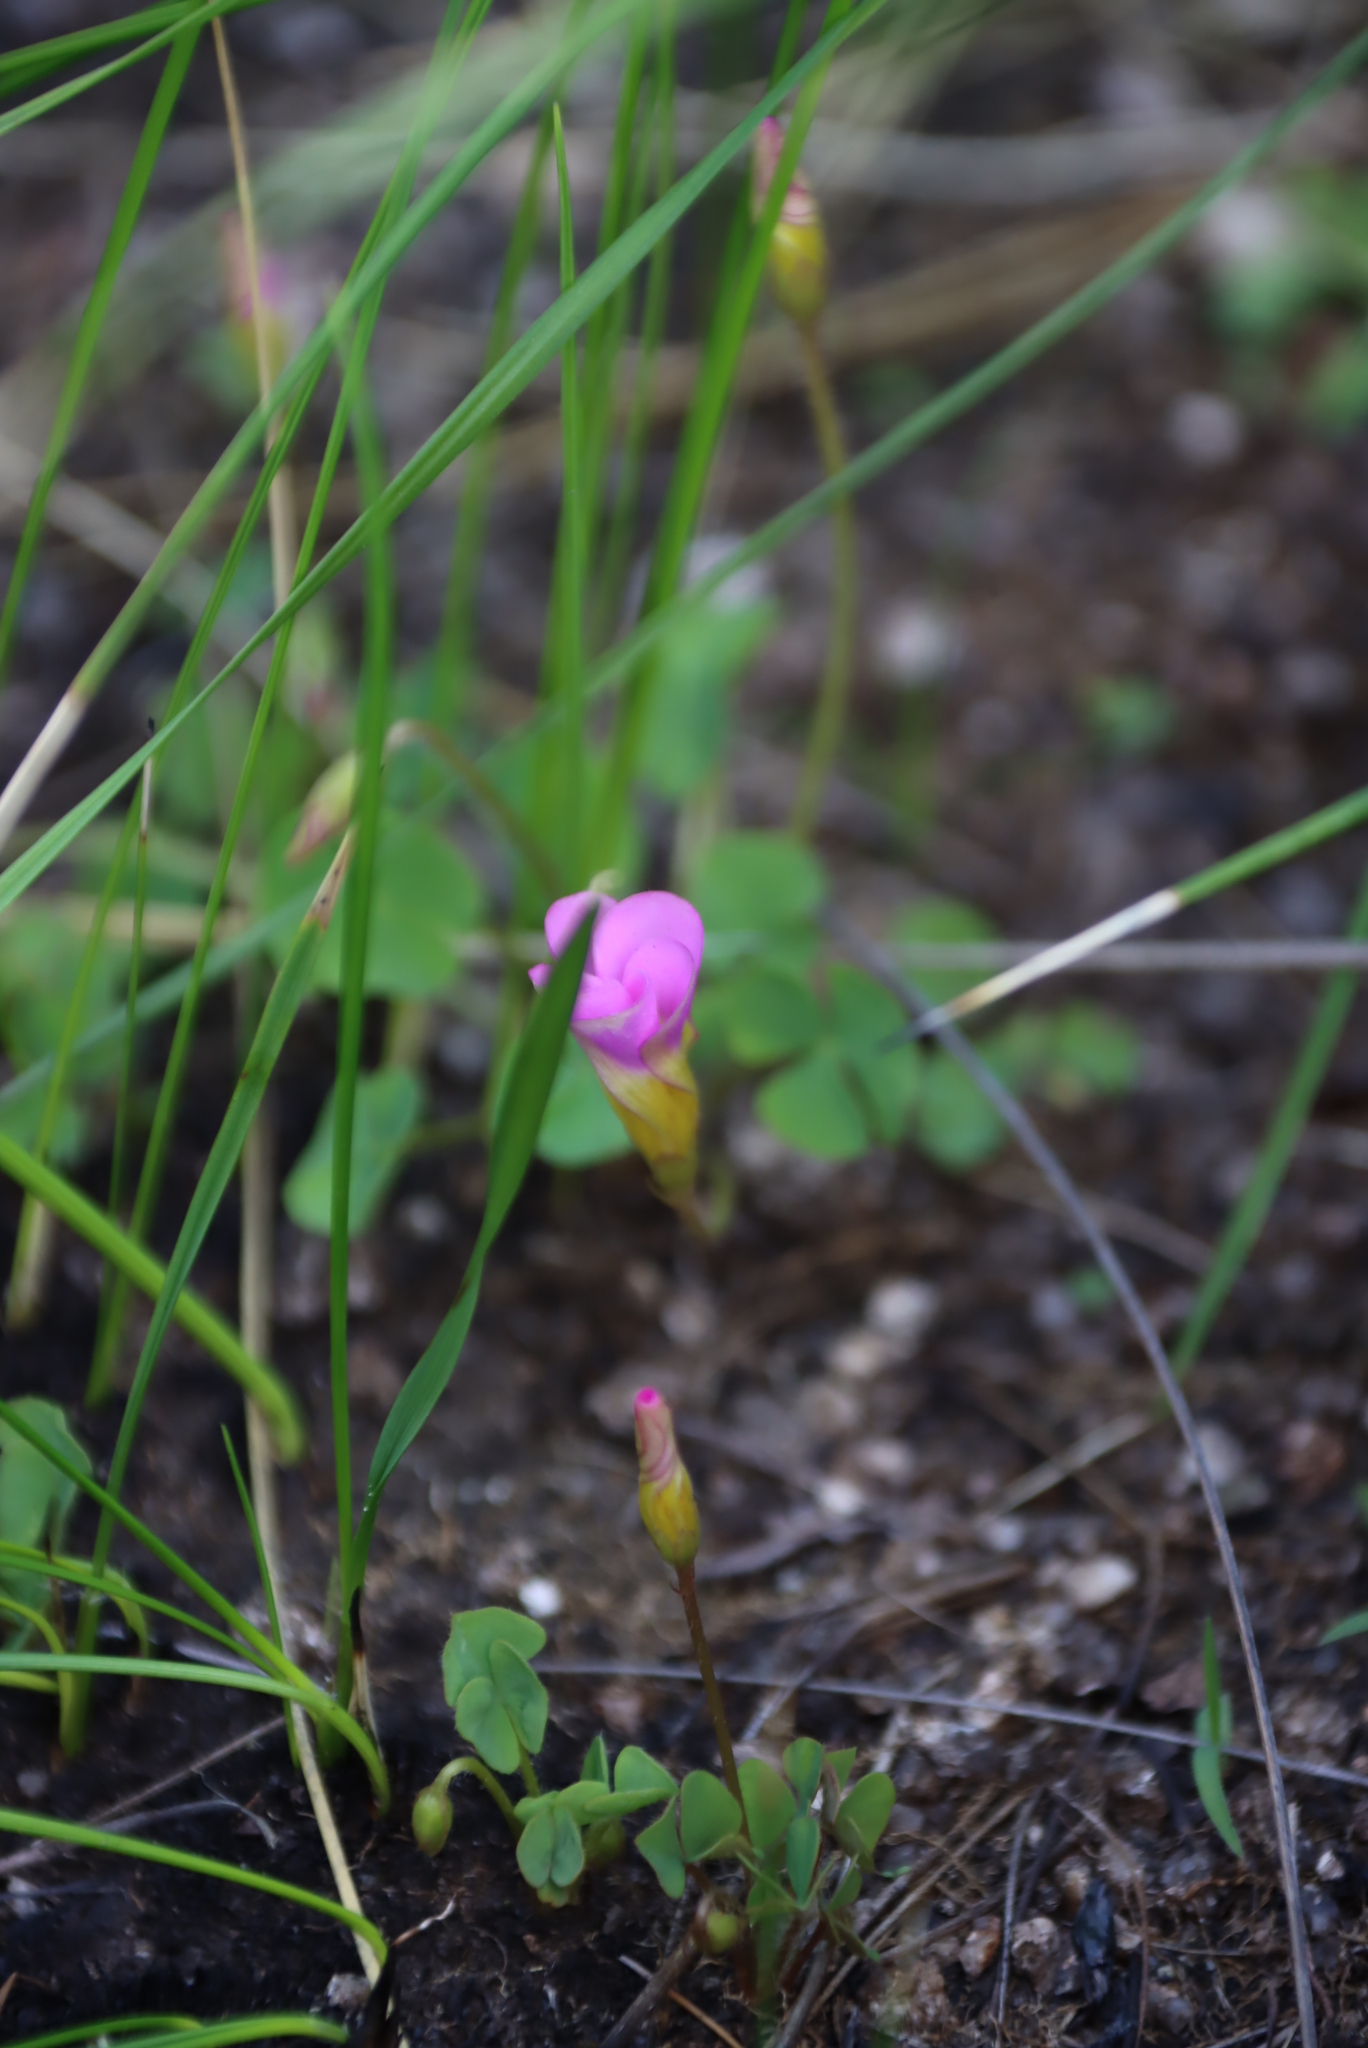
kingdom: Plantae
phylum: Tracheophyta
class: Magnoliopsida
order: Oxalidales
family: Oxalidaceae
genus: Oxalis
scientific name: Oxalis obliquifolia
